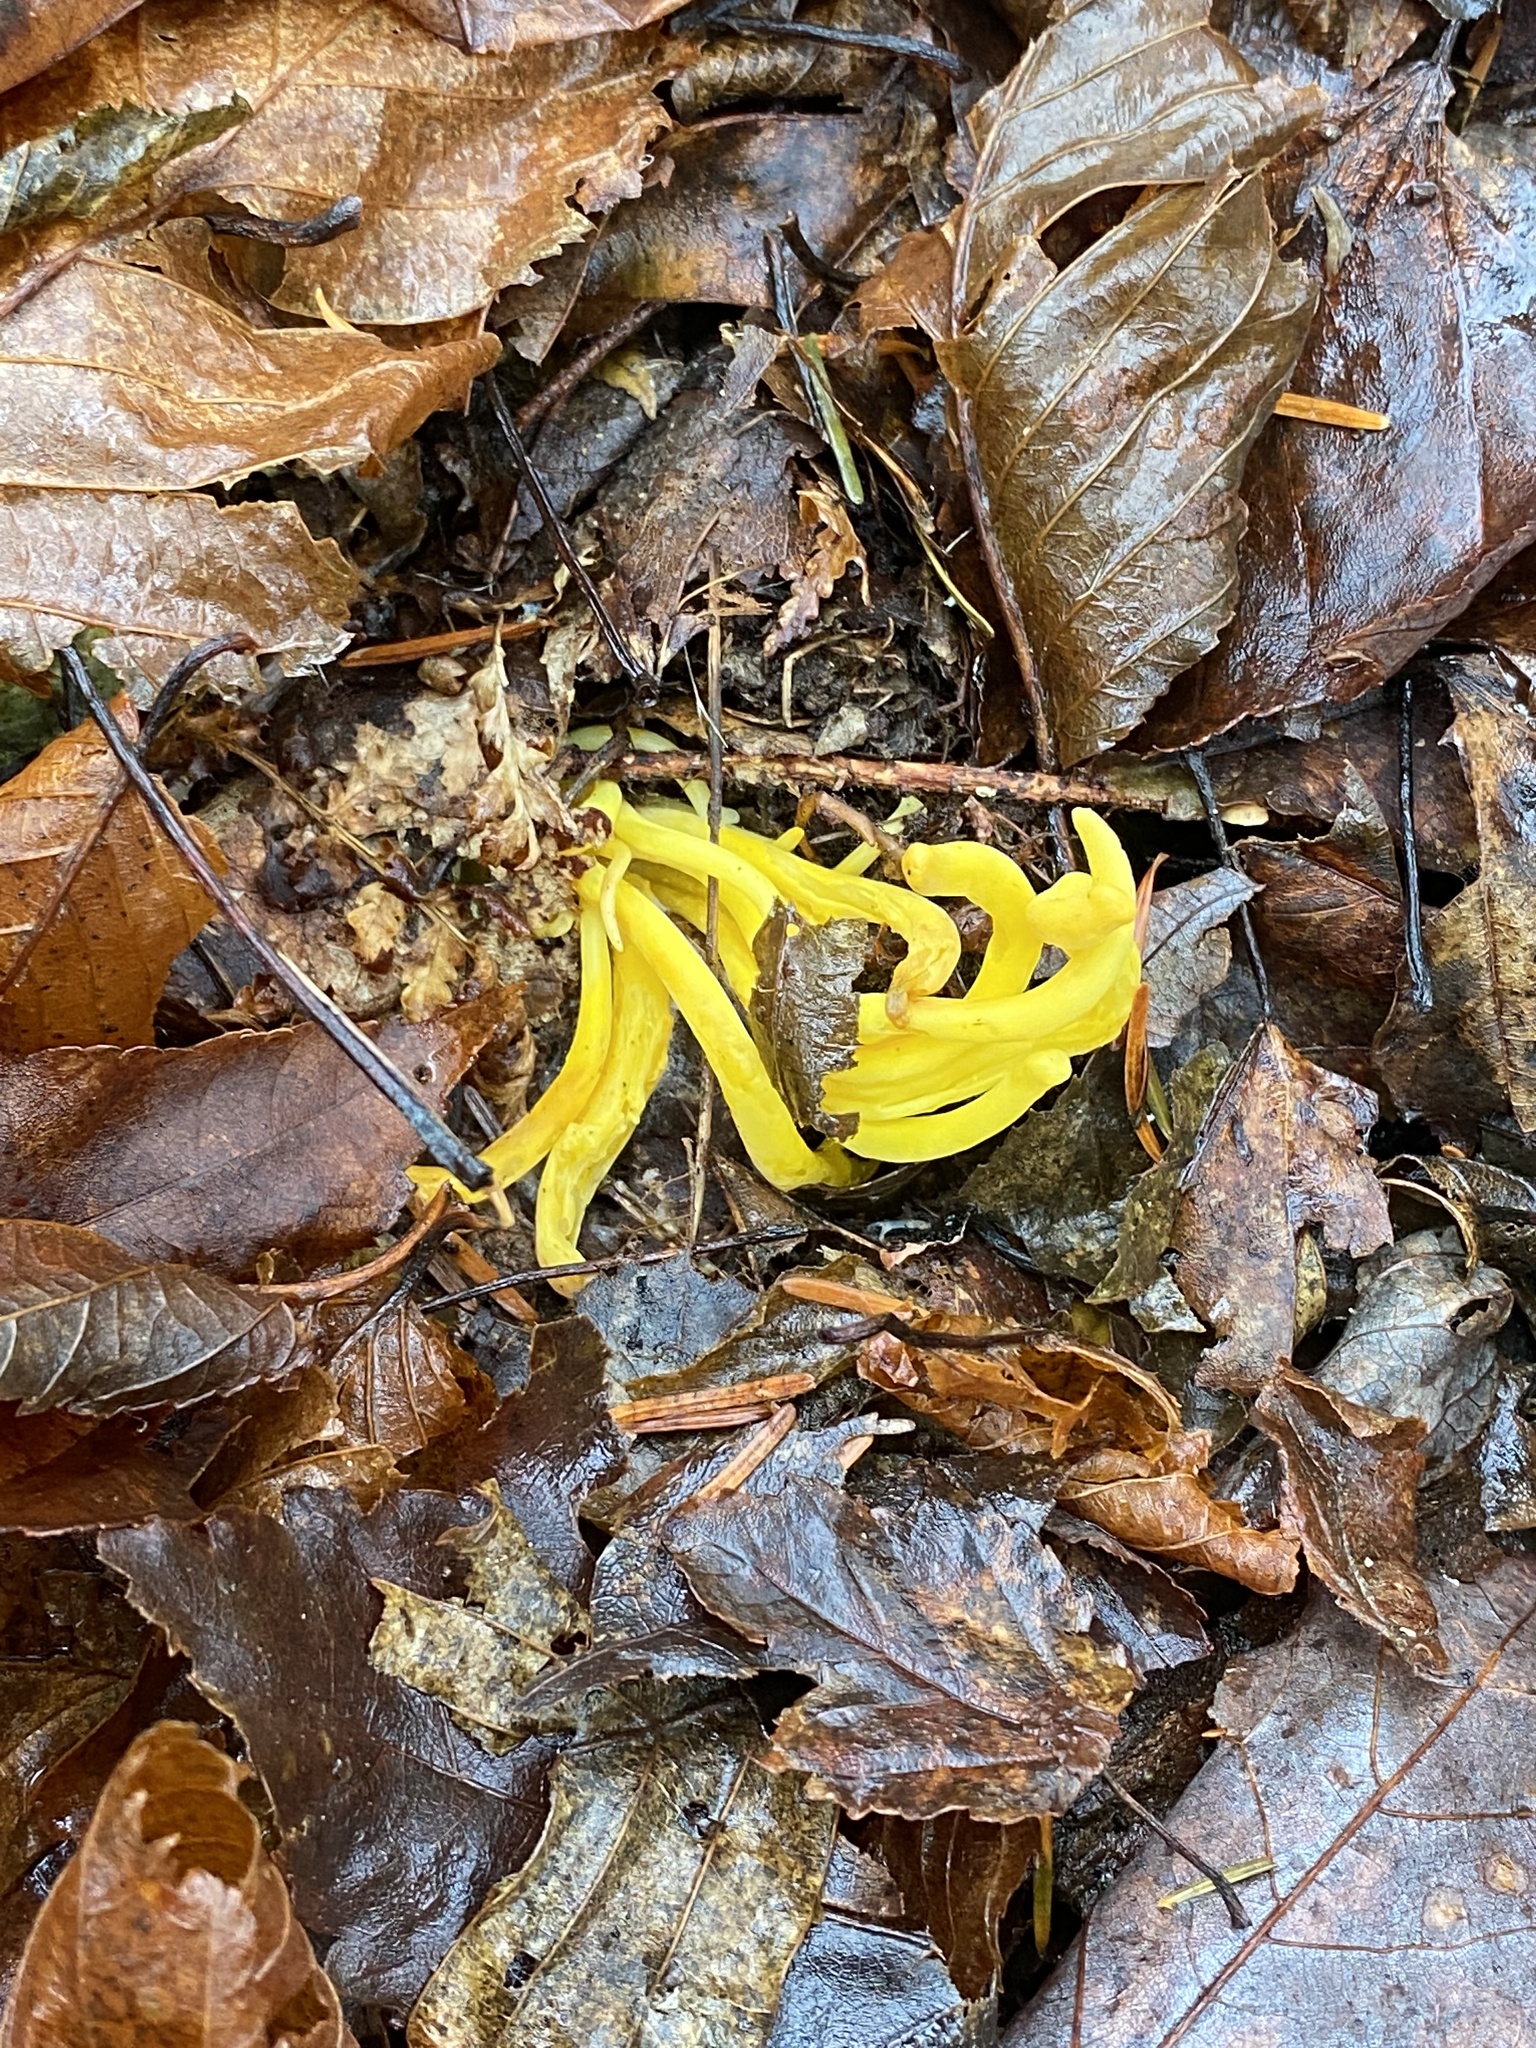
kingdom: Fungi
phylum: Basidiomycota
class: Agaricomycetes
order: Agaricales
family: Clavariaceae
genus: Clavulinopsis
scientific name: Clavulinopsis fusiformis
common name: Golden spindles
